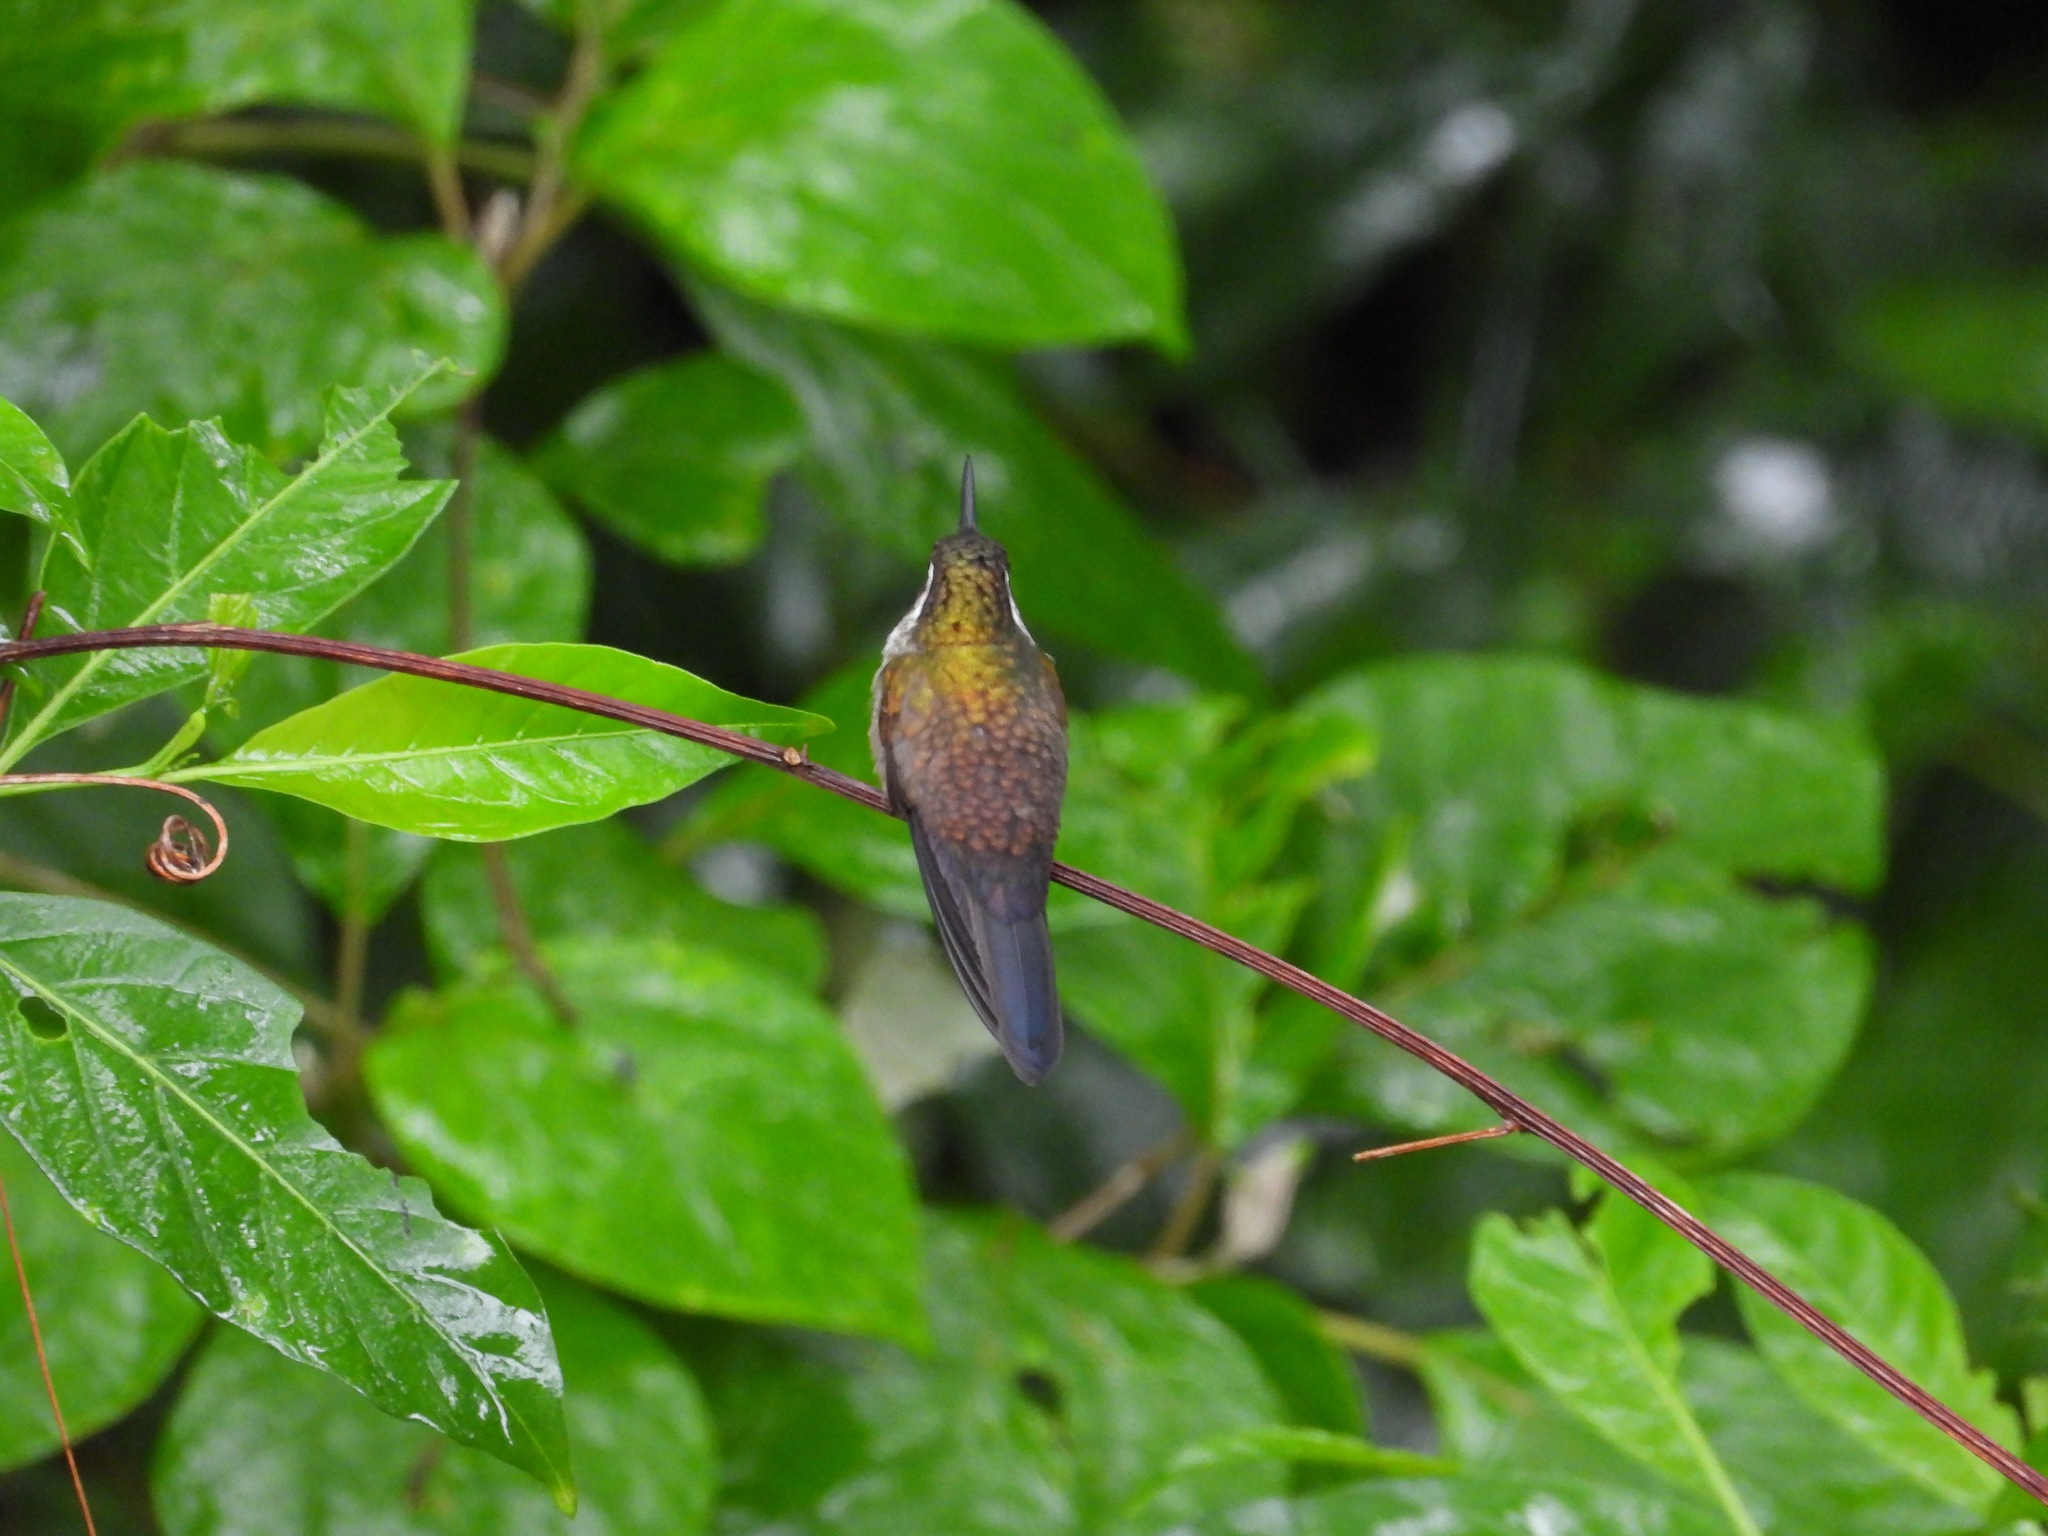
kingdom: Animalia
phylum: Chordata
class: Aves
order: Apodiformes
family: Trochilidae
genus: Lampornis
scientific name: Lampornis viridipallens
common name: Green-throated mountain-gem
